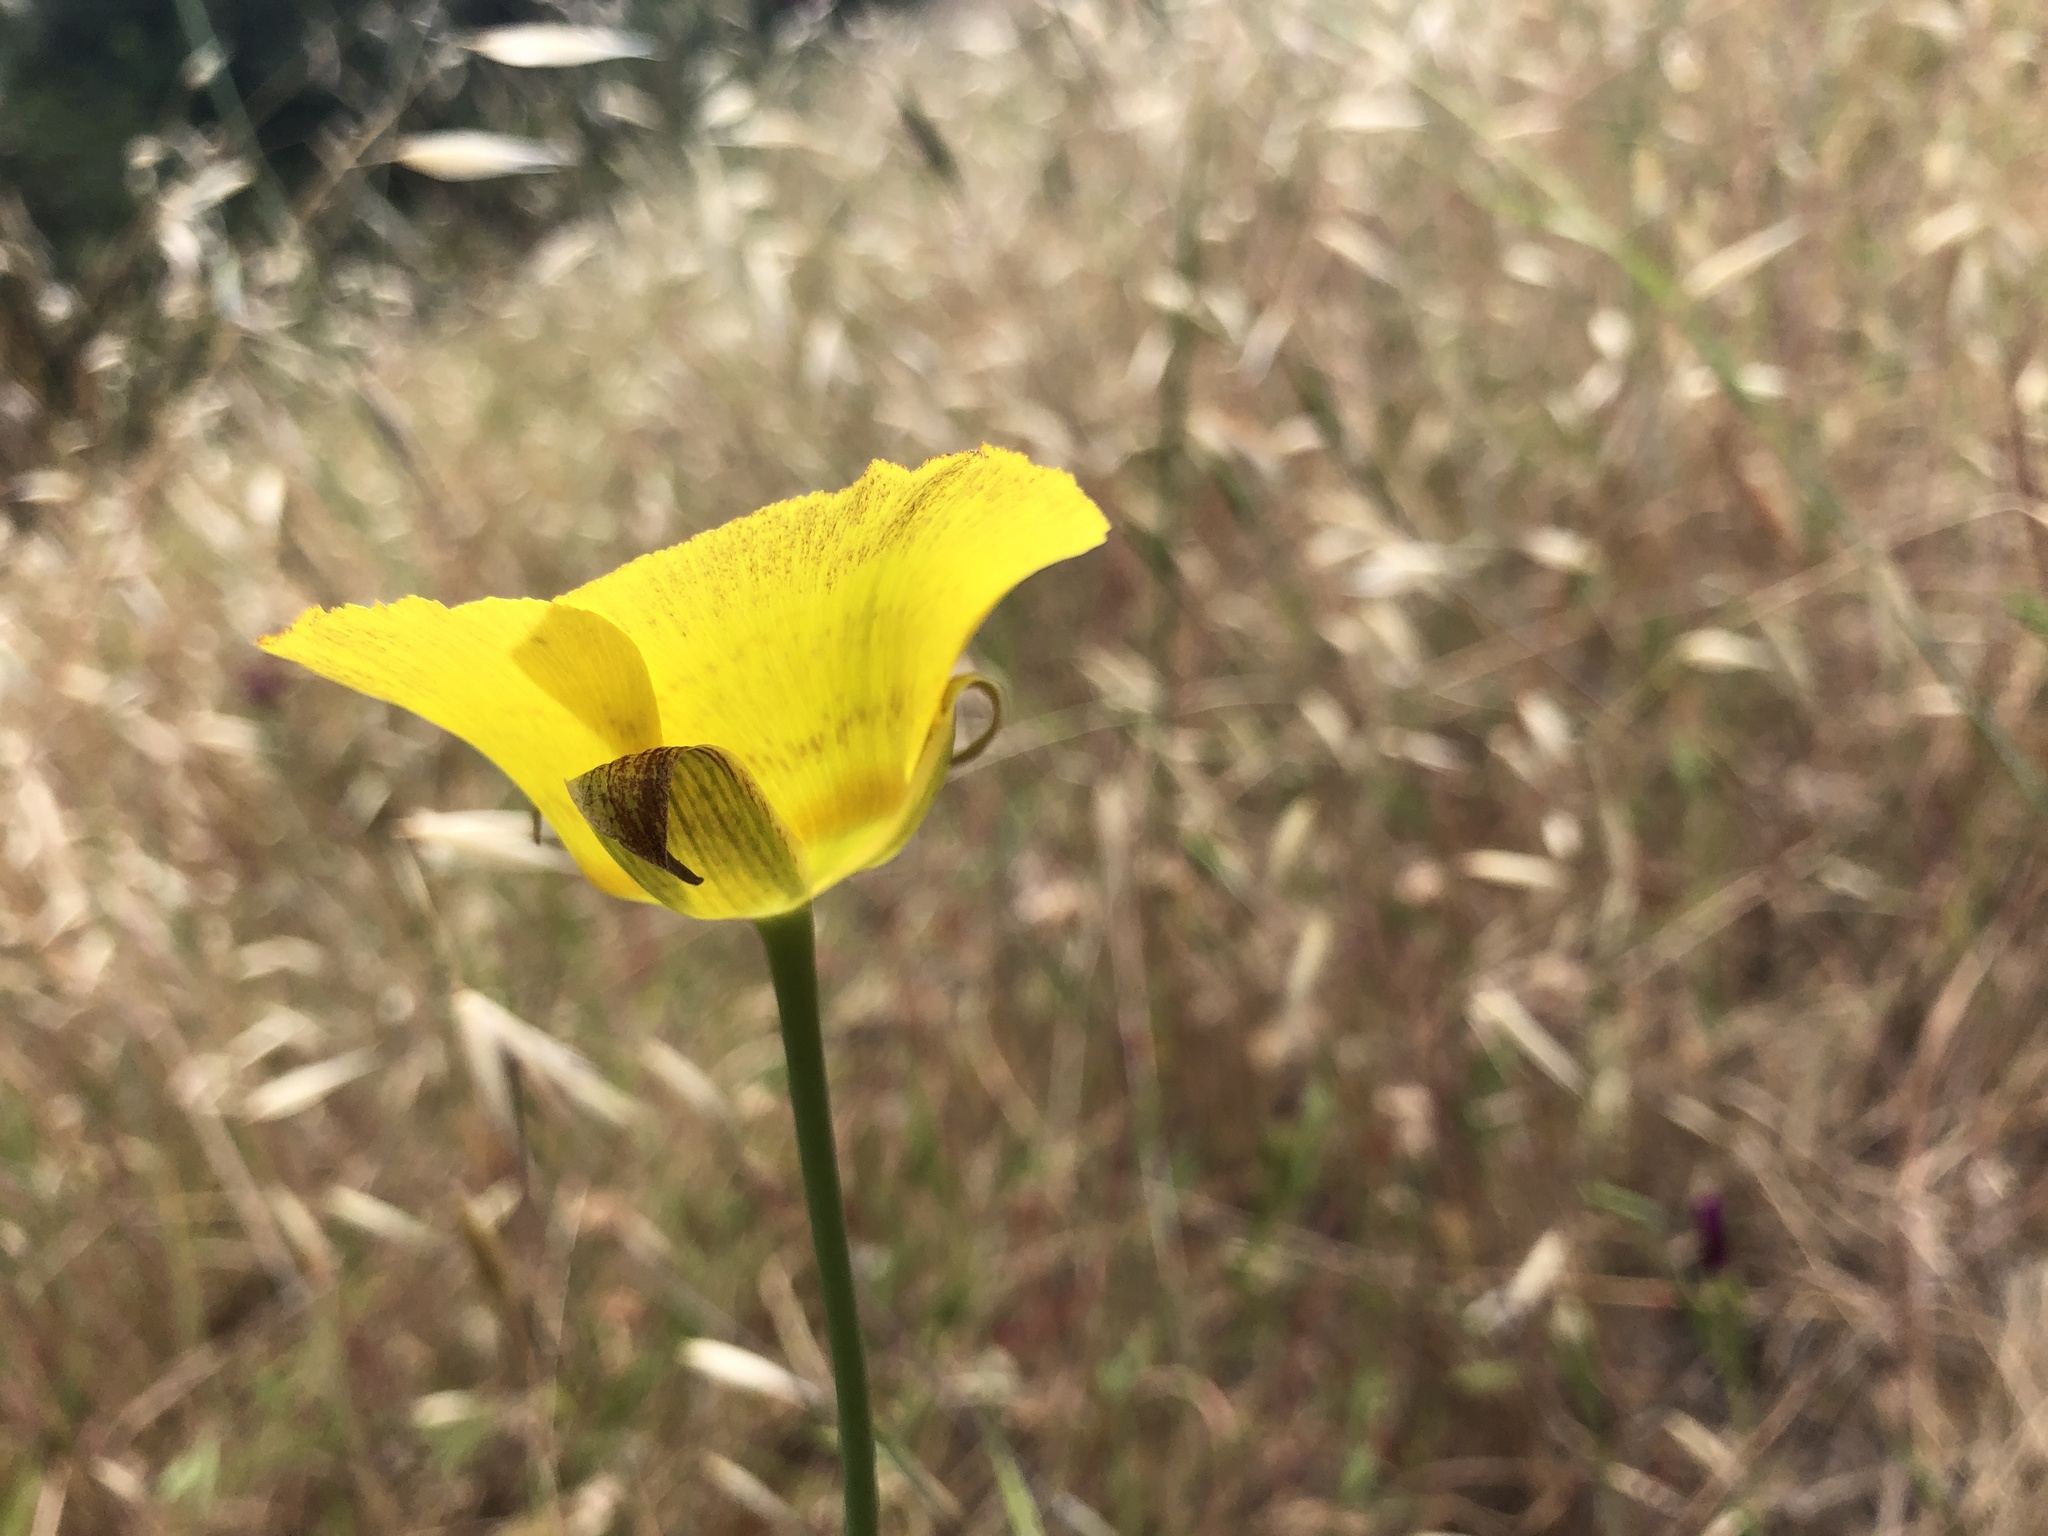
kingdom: Plantae
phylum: Tracheophyta
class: Liliopsida
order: Liliales
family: Liliaceae
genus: Calochortus
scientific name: Calochortus luteus
